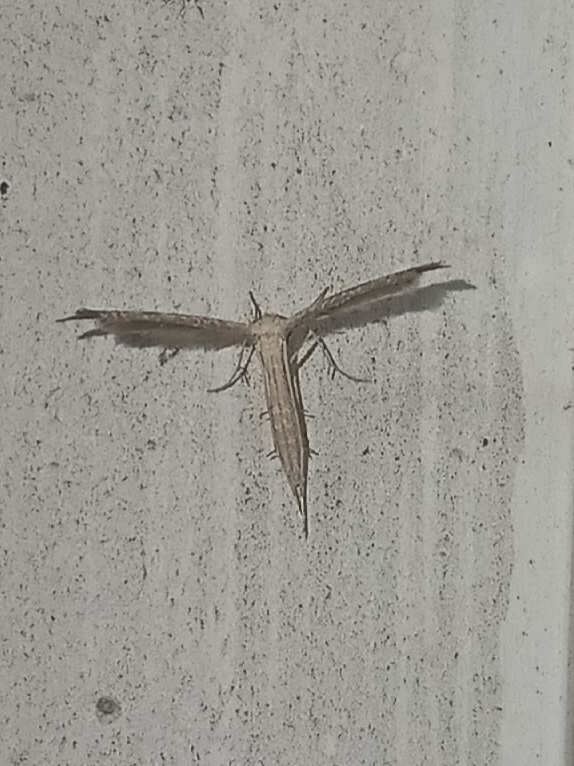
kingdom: Animalia
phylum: Arthropoda
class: Insecta
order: Lepidoptera
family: Pterophoridae
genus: Lioptilodes
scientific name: Lioptilodes albistriolatus
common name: Moth
